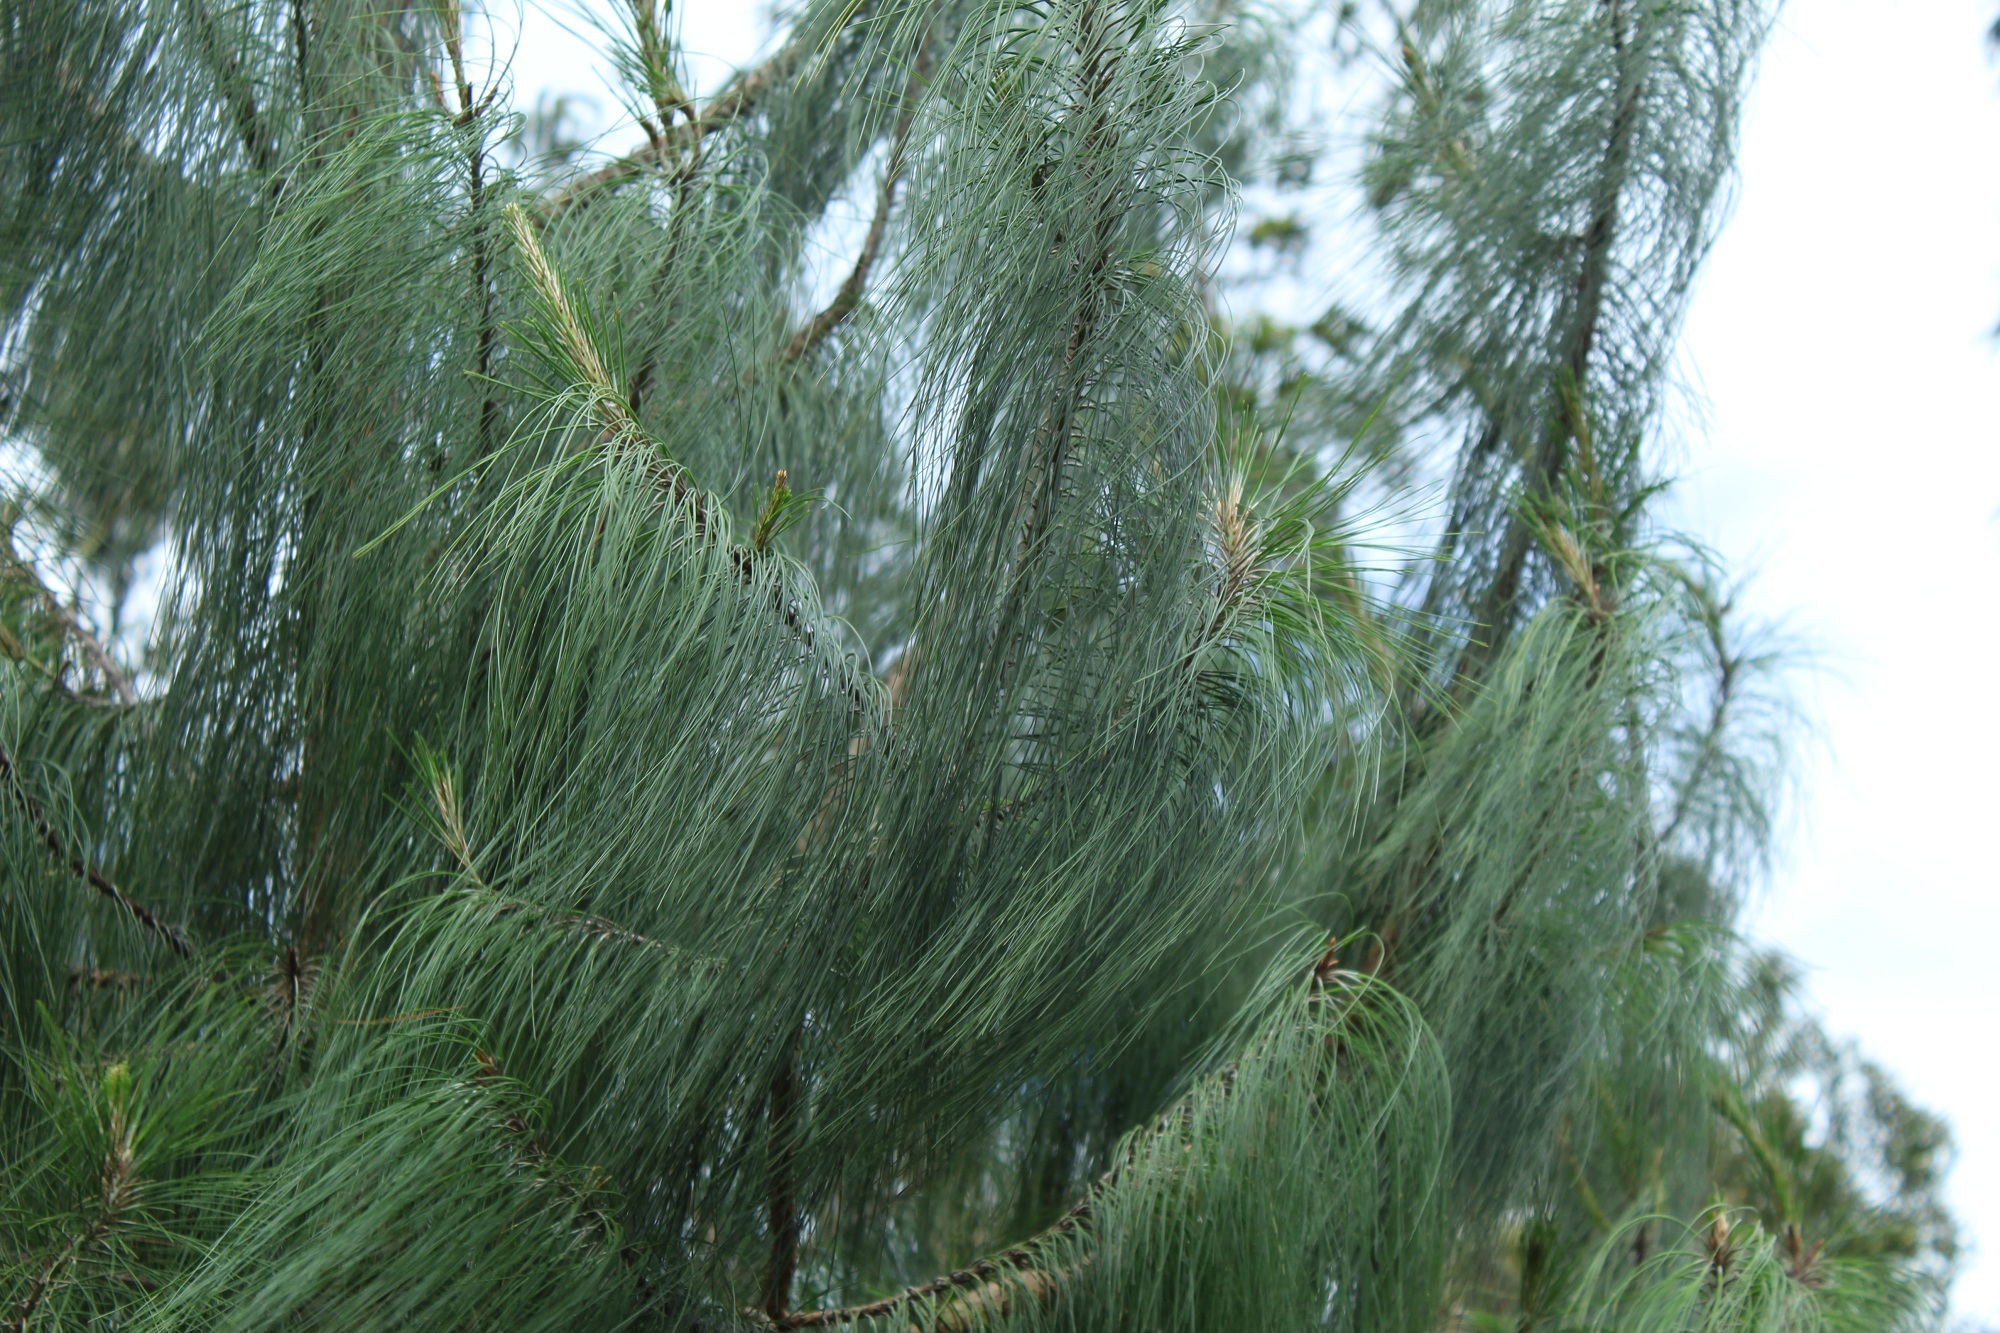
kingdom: Plantae
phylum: Tracheophyta
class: Pinopsida
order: Pinales
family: Pinaceae
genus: Pinus
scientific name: Pinus patula
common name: Mexican weeping pine
